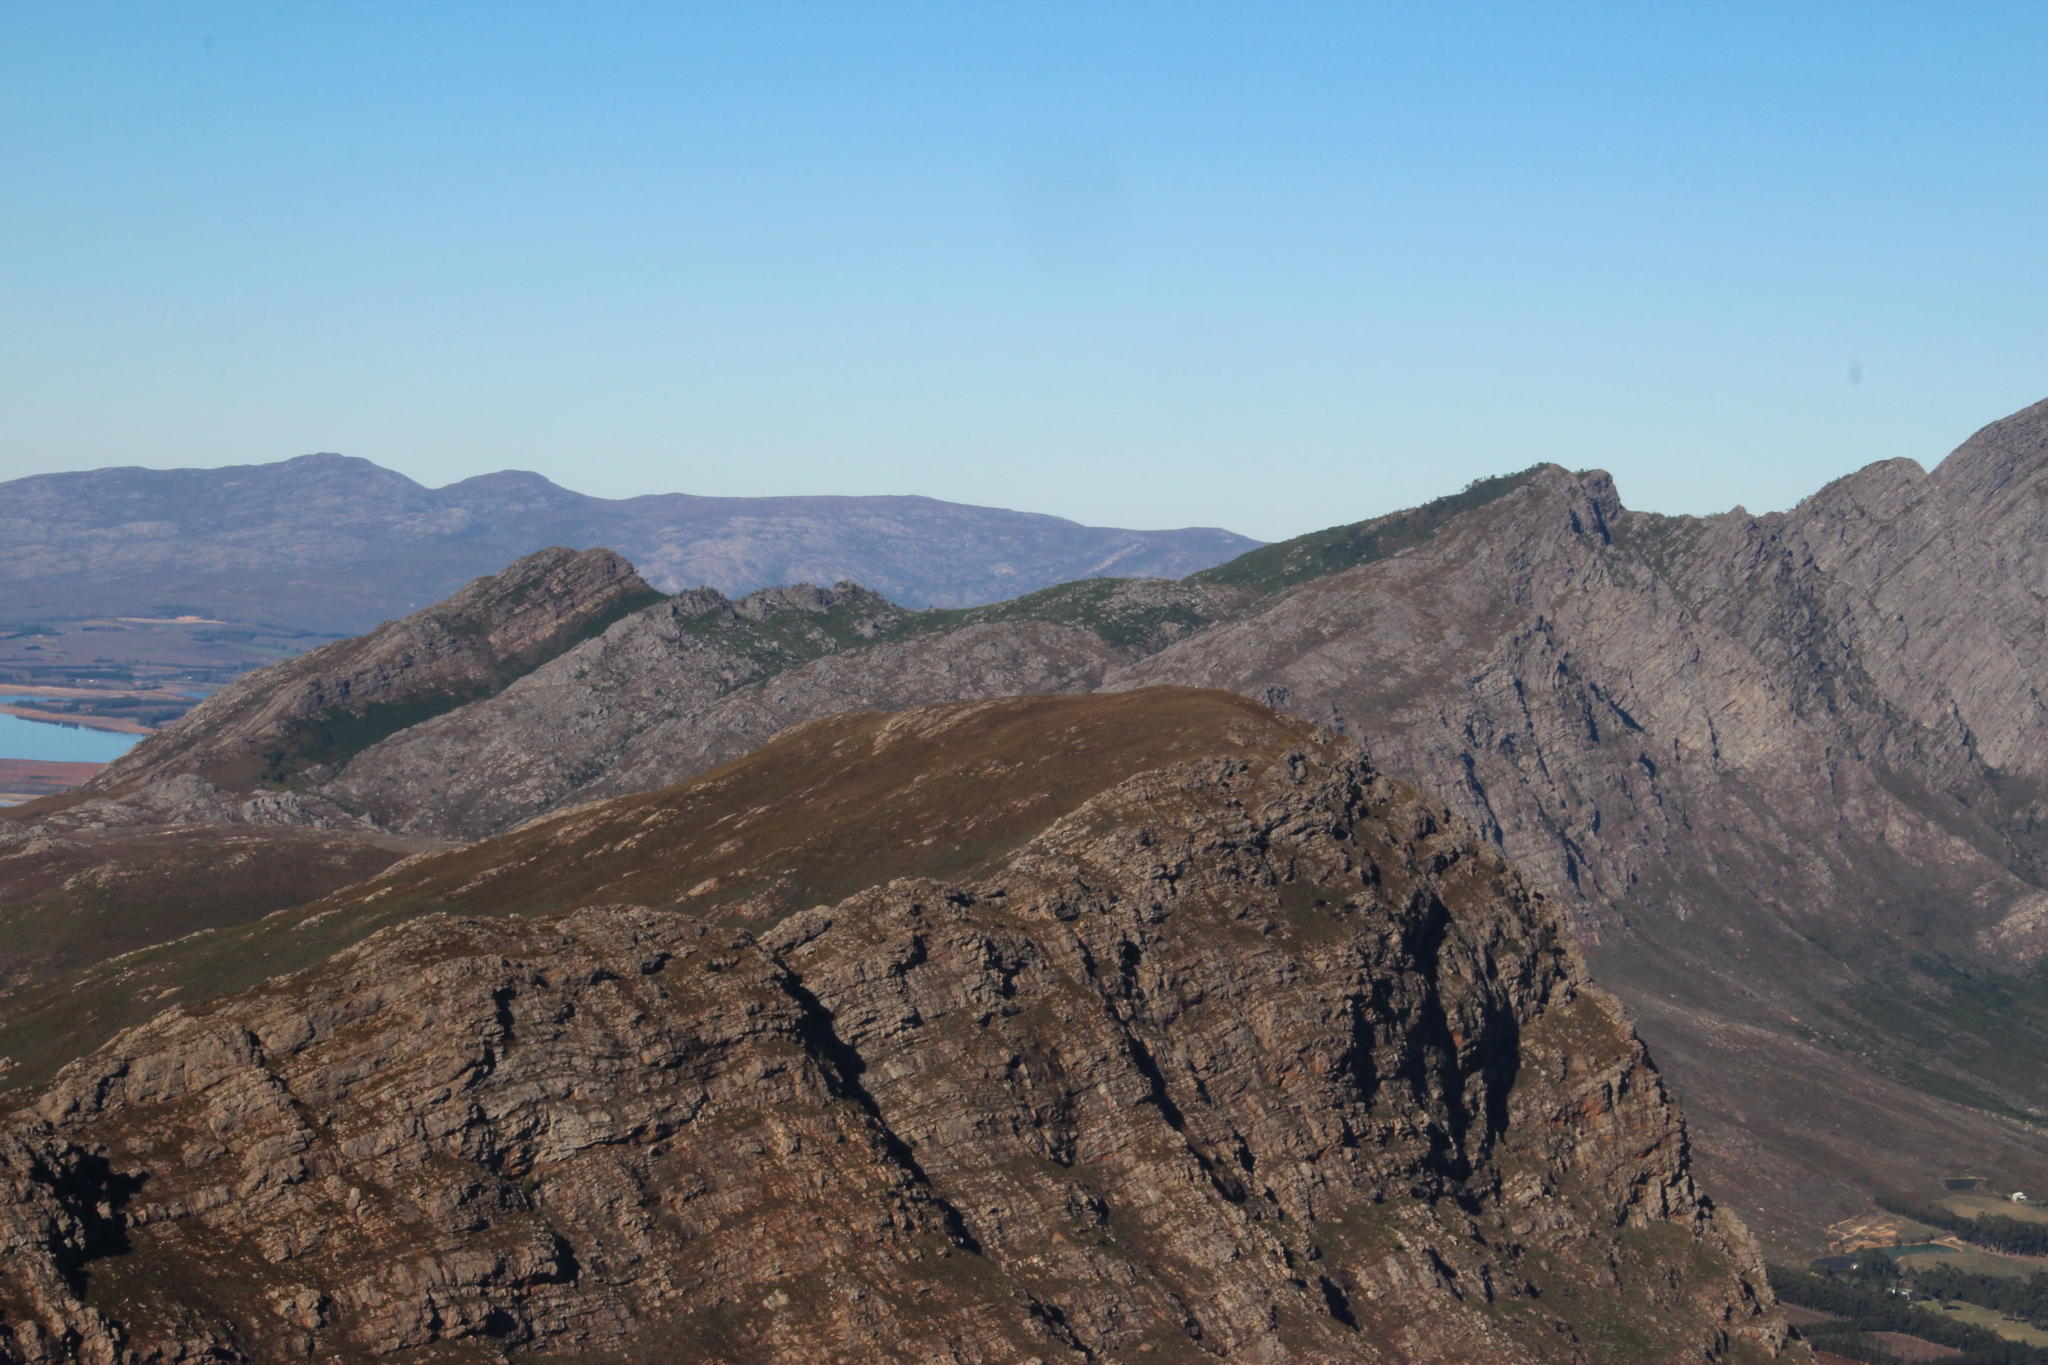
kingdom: Plantae
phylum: Tracheophyta
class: Pinopsida
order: Pinales
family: Pinaceae
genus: Pinus
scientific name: Pinus pinaster
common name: Maritime pine
